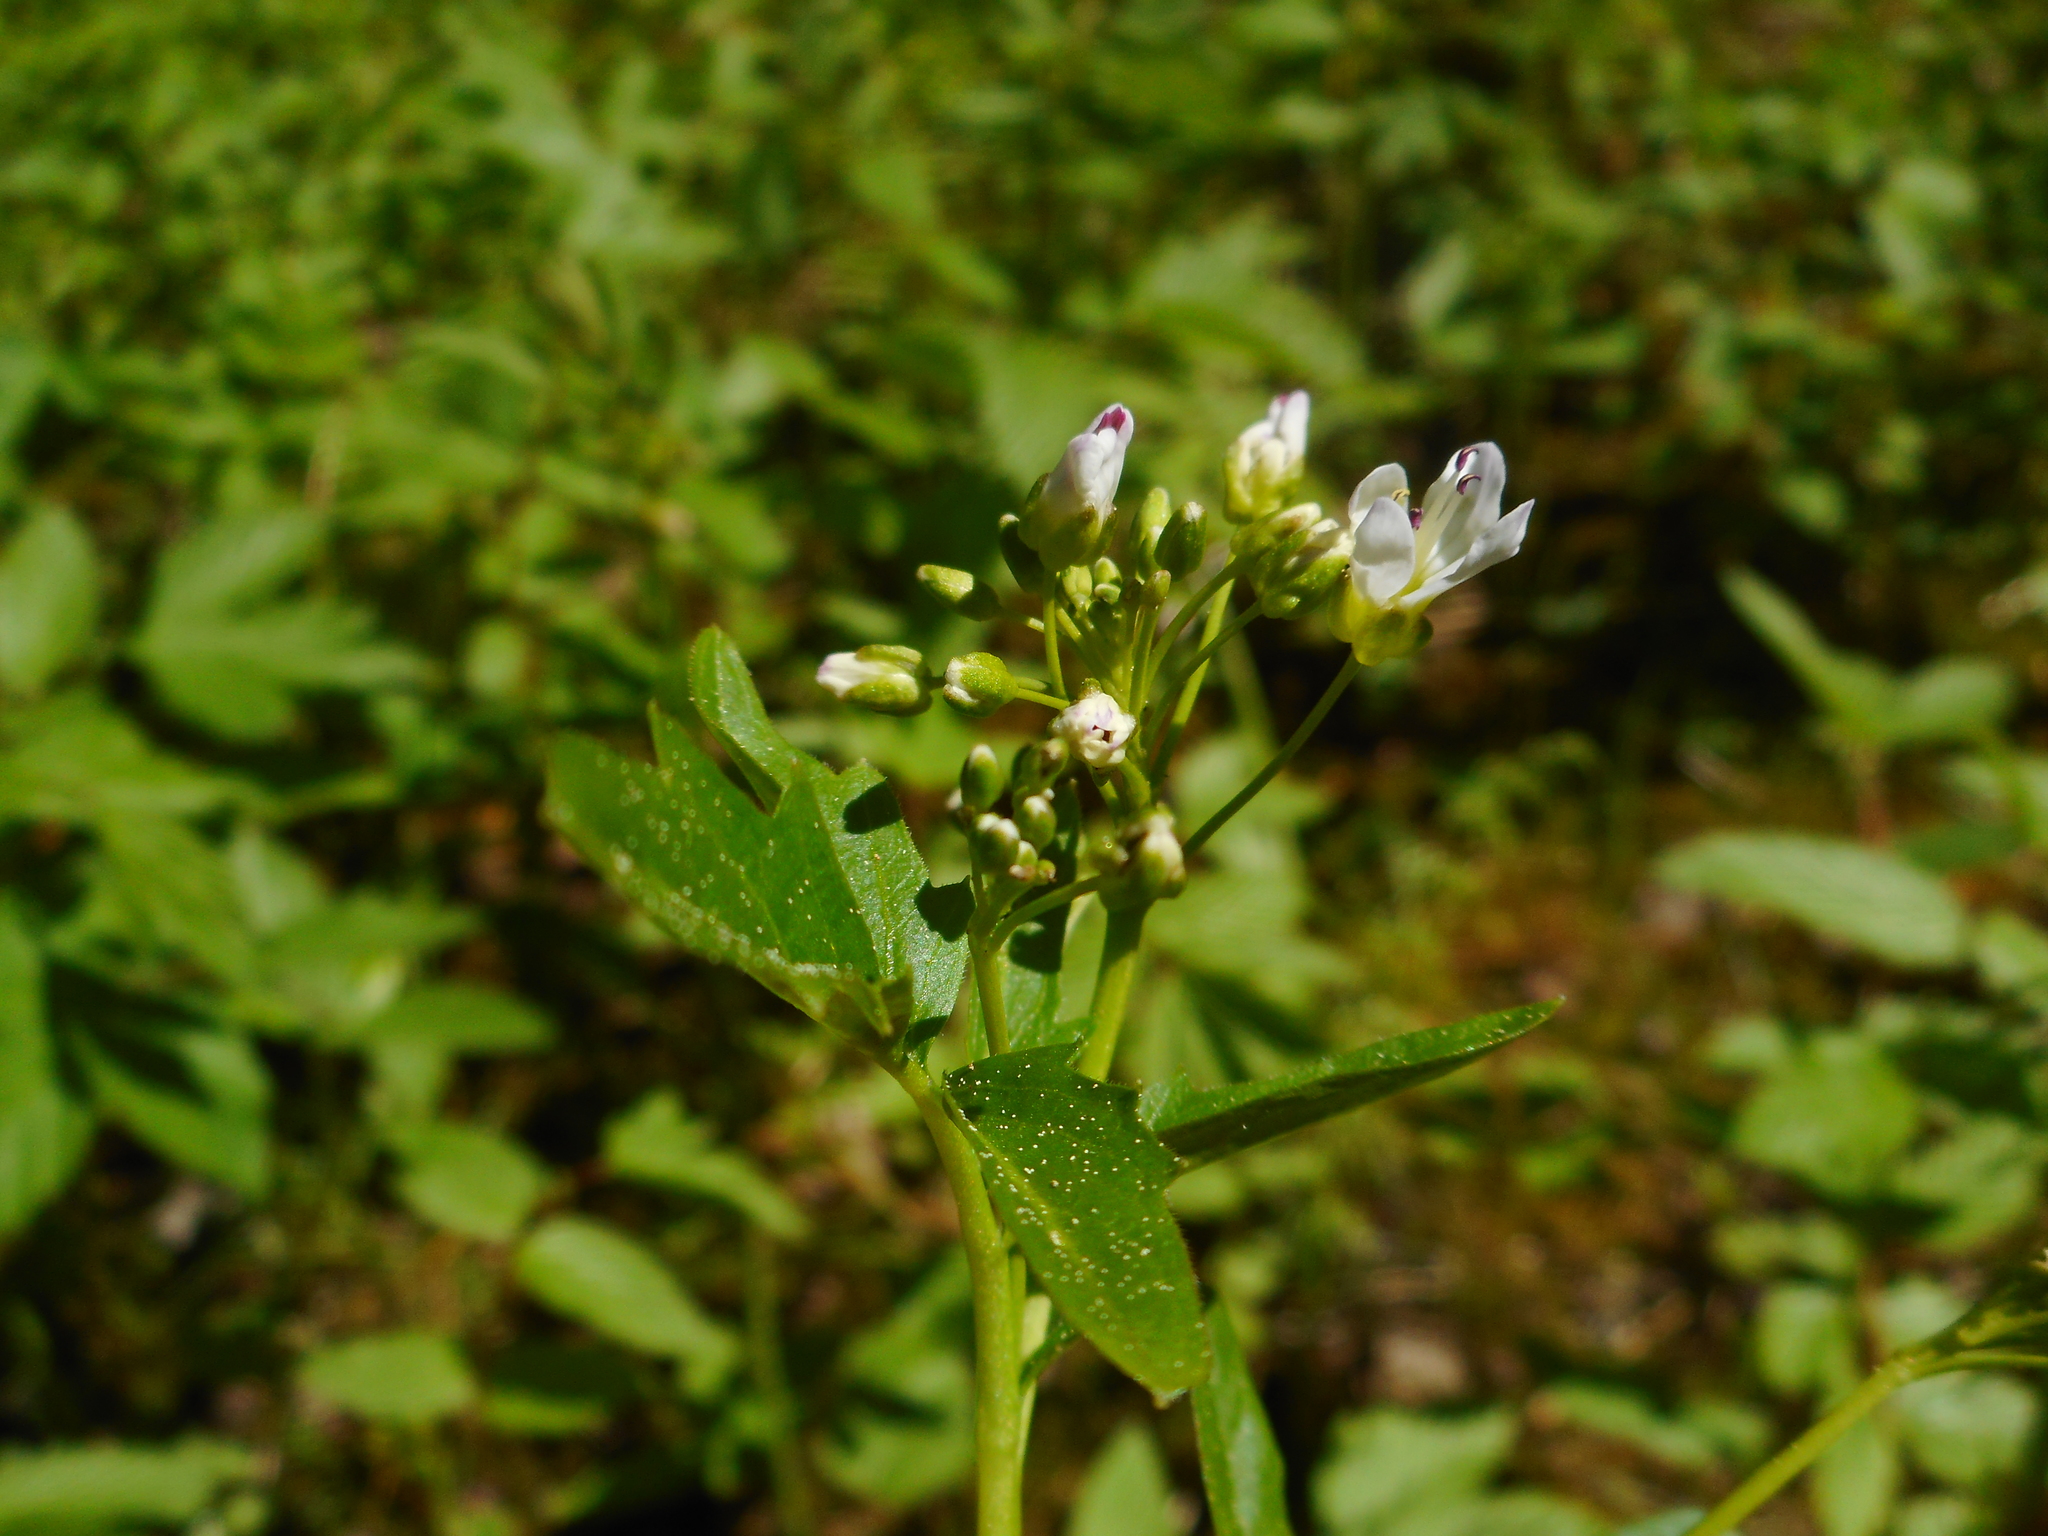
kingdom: Plantae
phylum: Tracheophyta
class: Magnoliopsida
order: Brassicales
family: Brassicaceae
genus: Cardamine
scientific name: Cardamine amara
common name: Large bitter-cress
